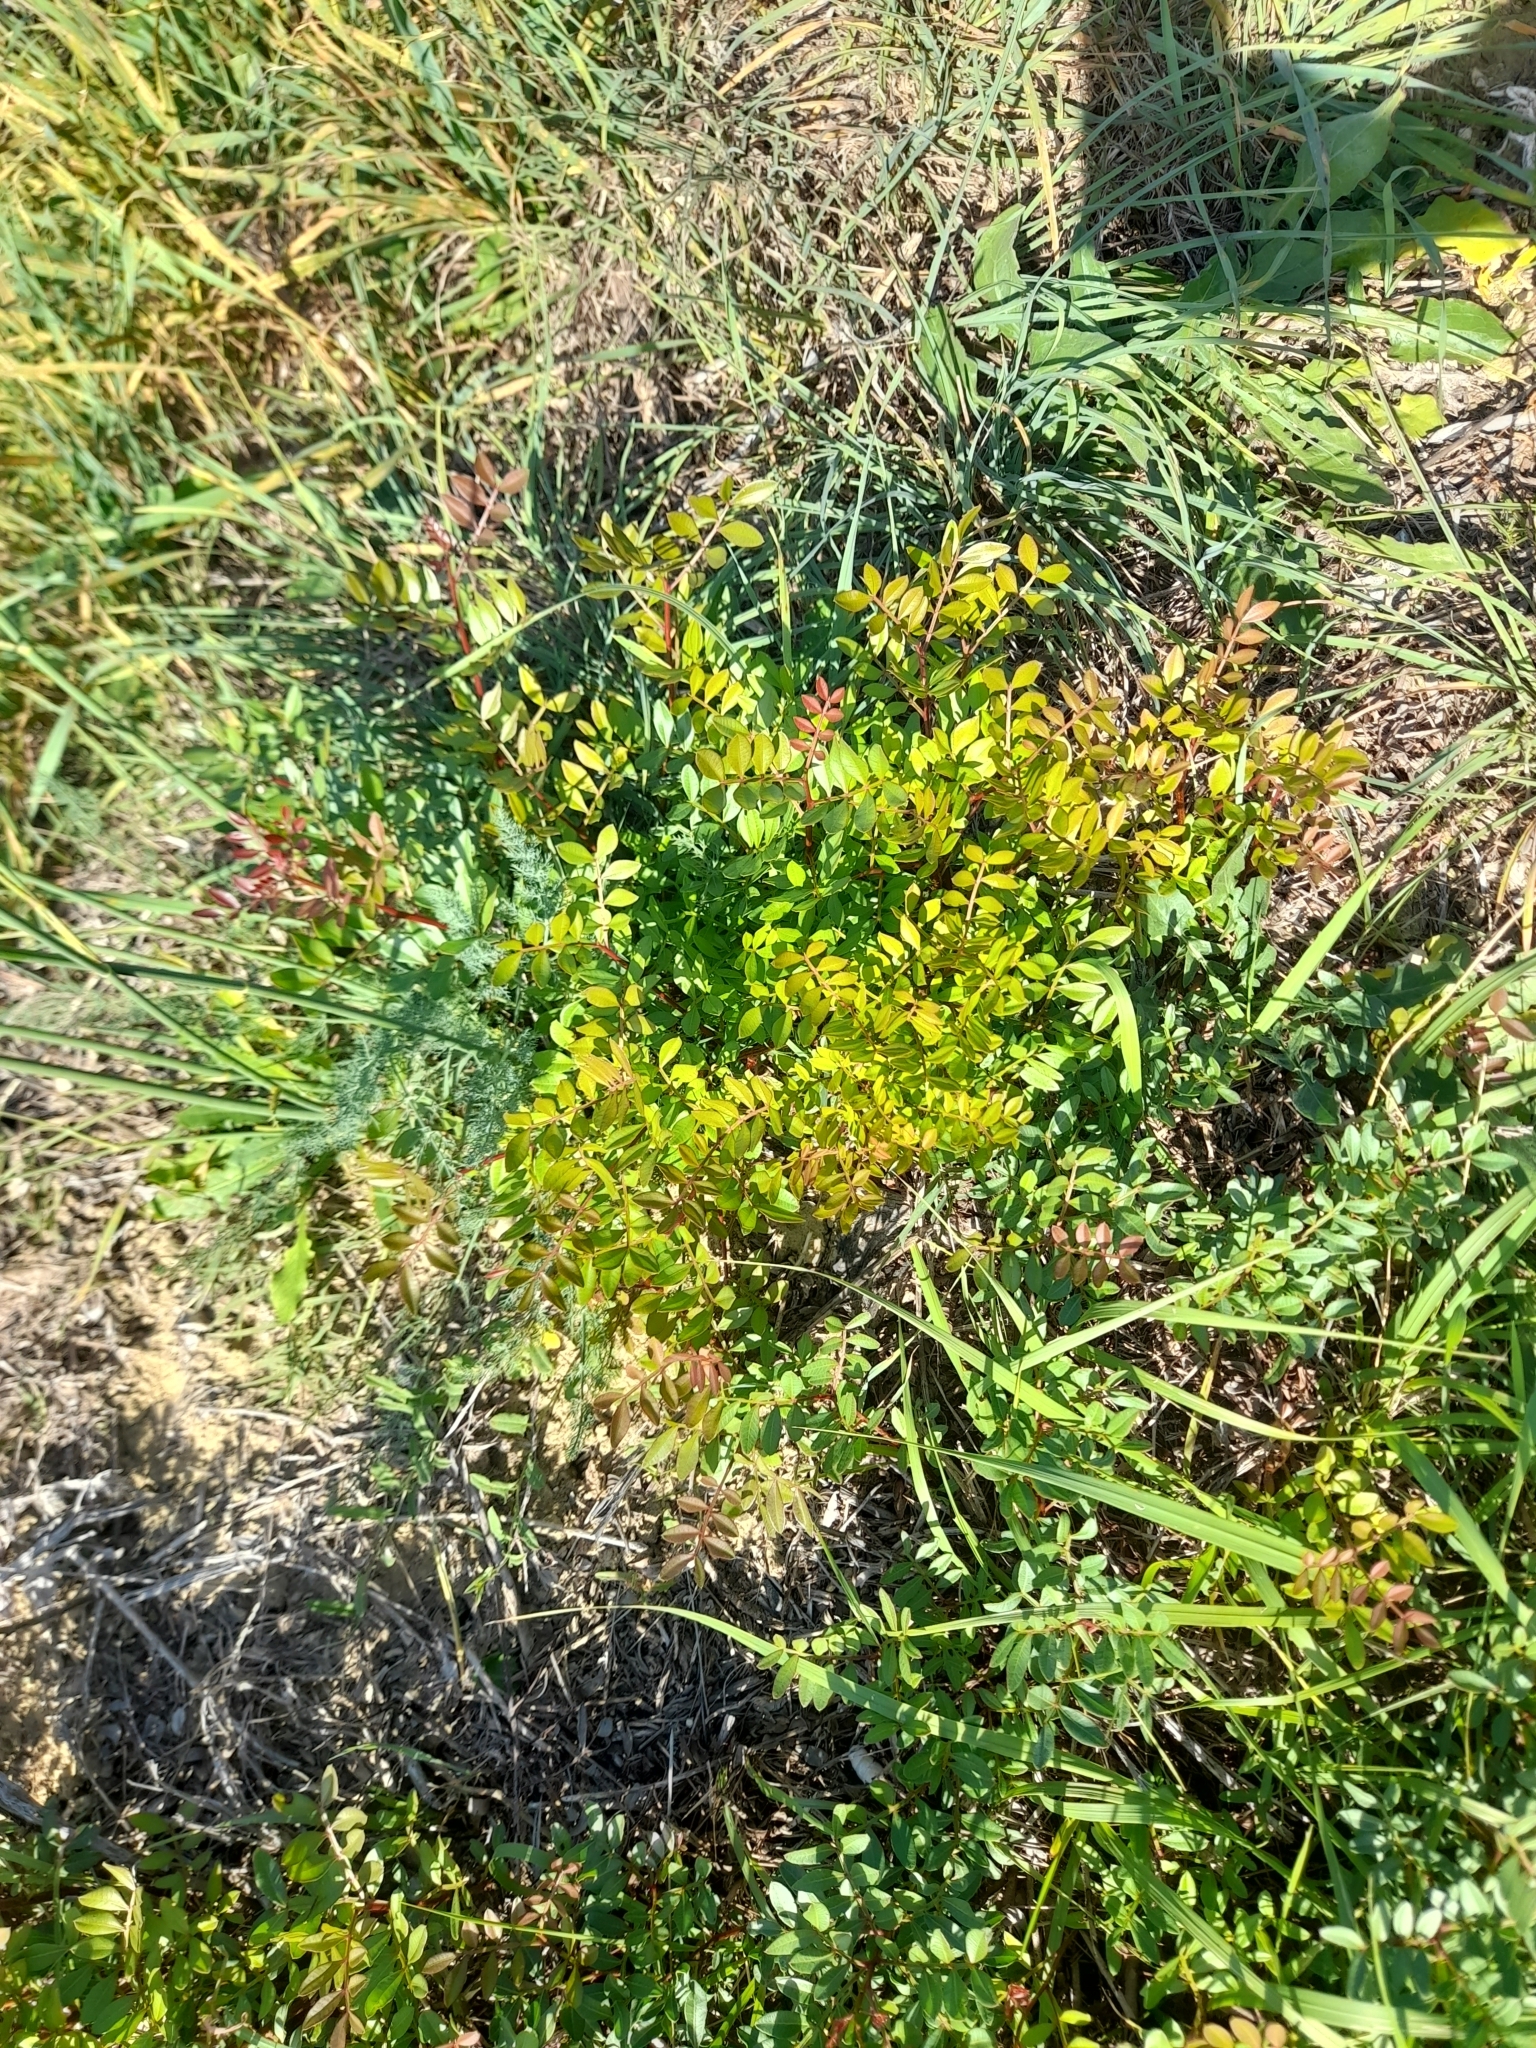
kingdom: Plantae
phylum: Tracheophyta
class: Magnoliopsida
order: Sapindales
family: Anacardiaceae
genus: Pistacia
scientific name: Pistacia lentiscus
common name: Lentisk
